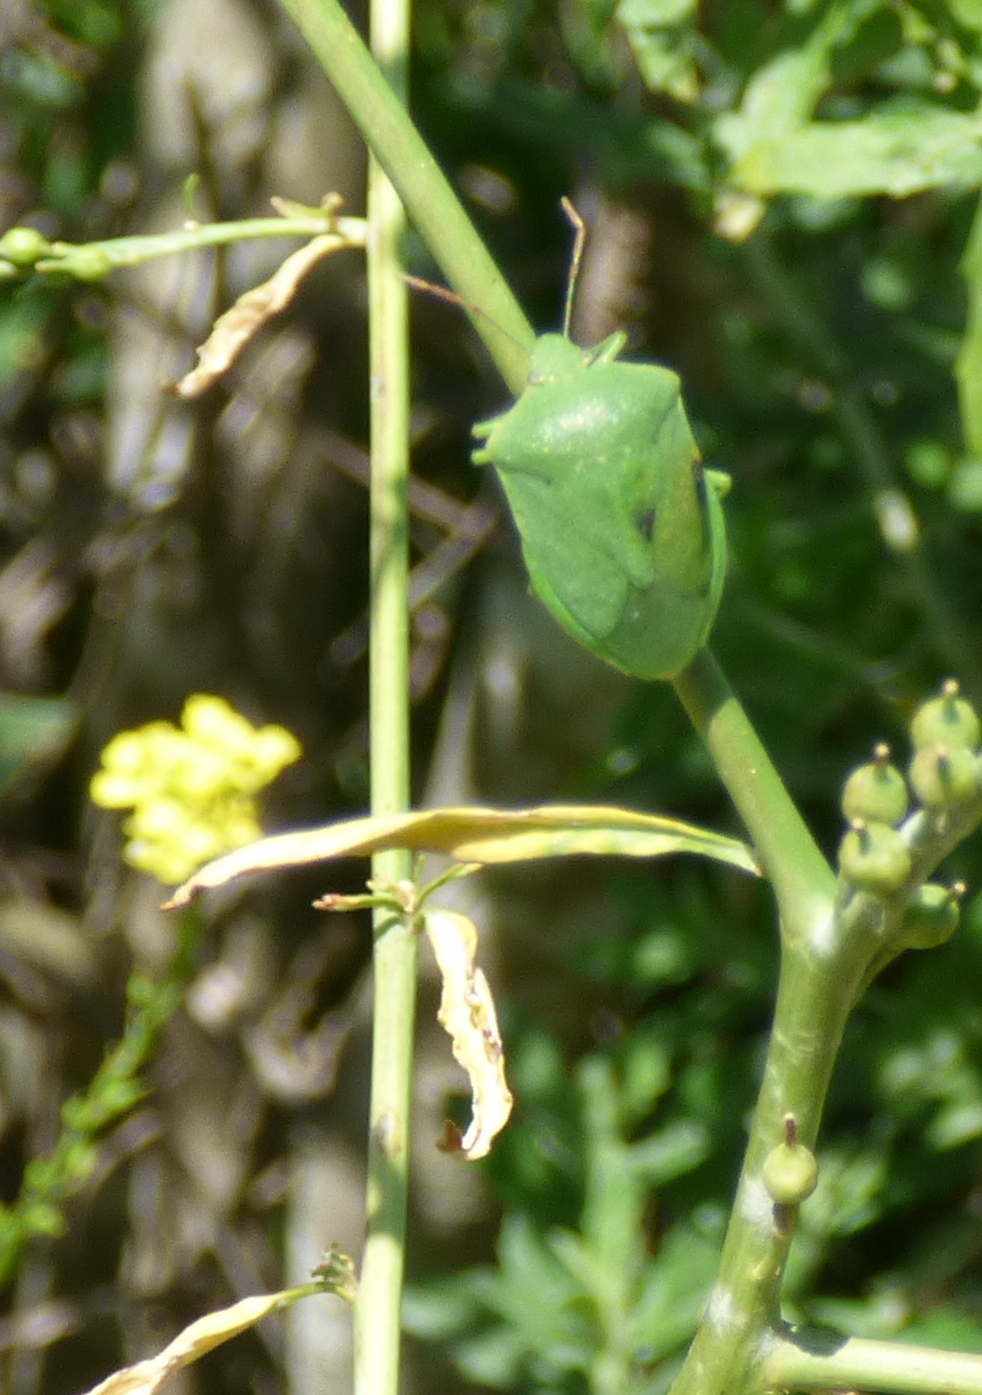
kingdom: Animalia
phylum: Arthropoda
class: Insecta
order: Hemiptera
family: Pentatomidae
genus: Nezara
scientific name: Nezara viridula
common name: Southern green stink bug
